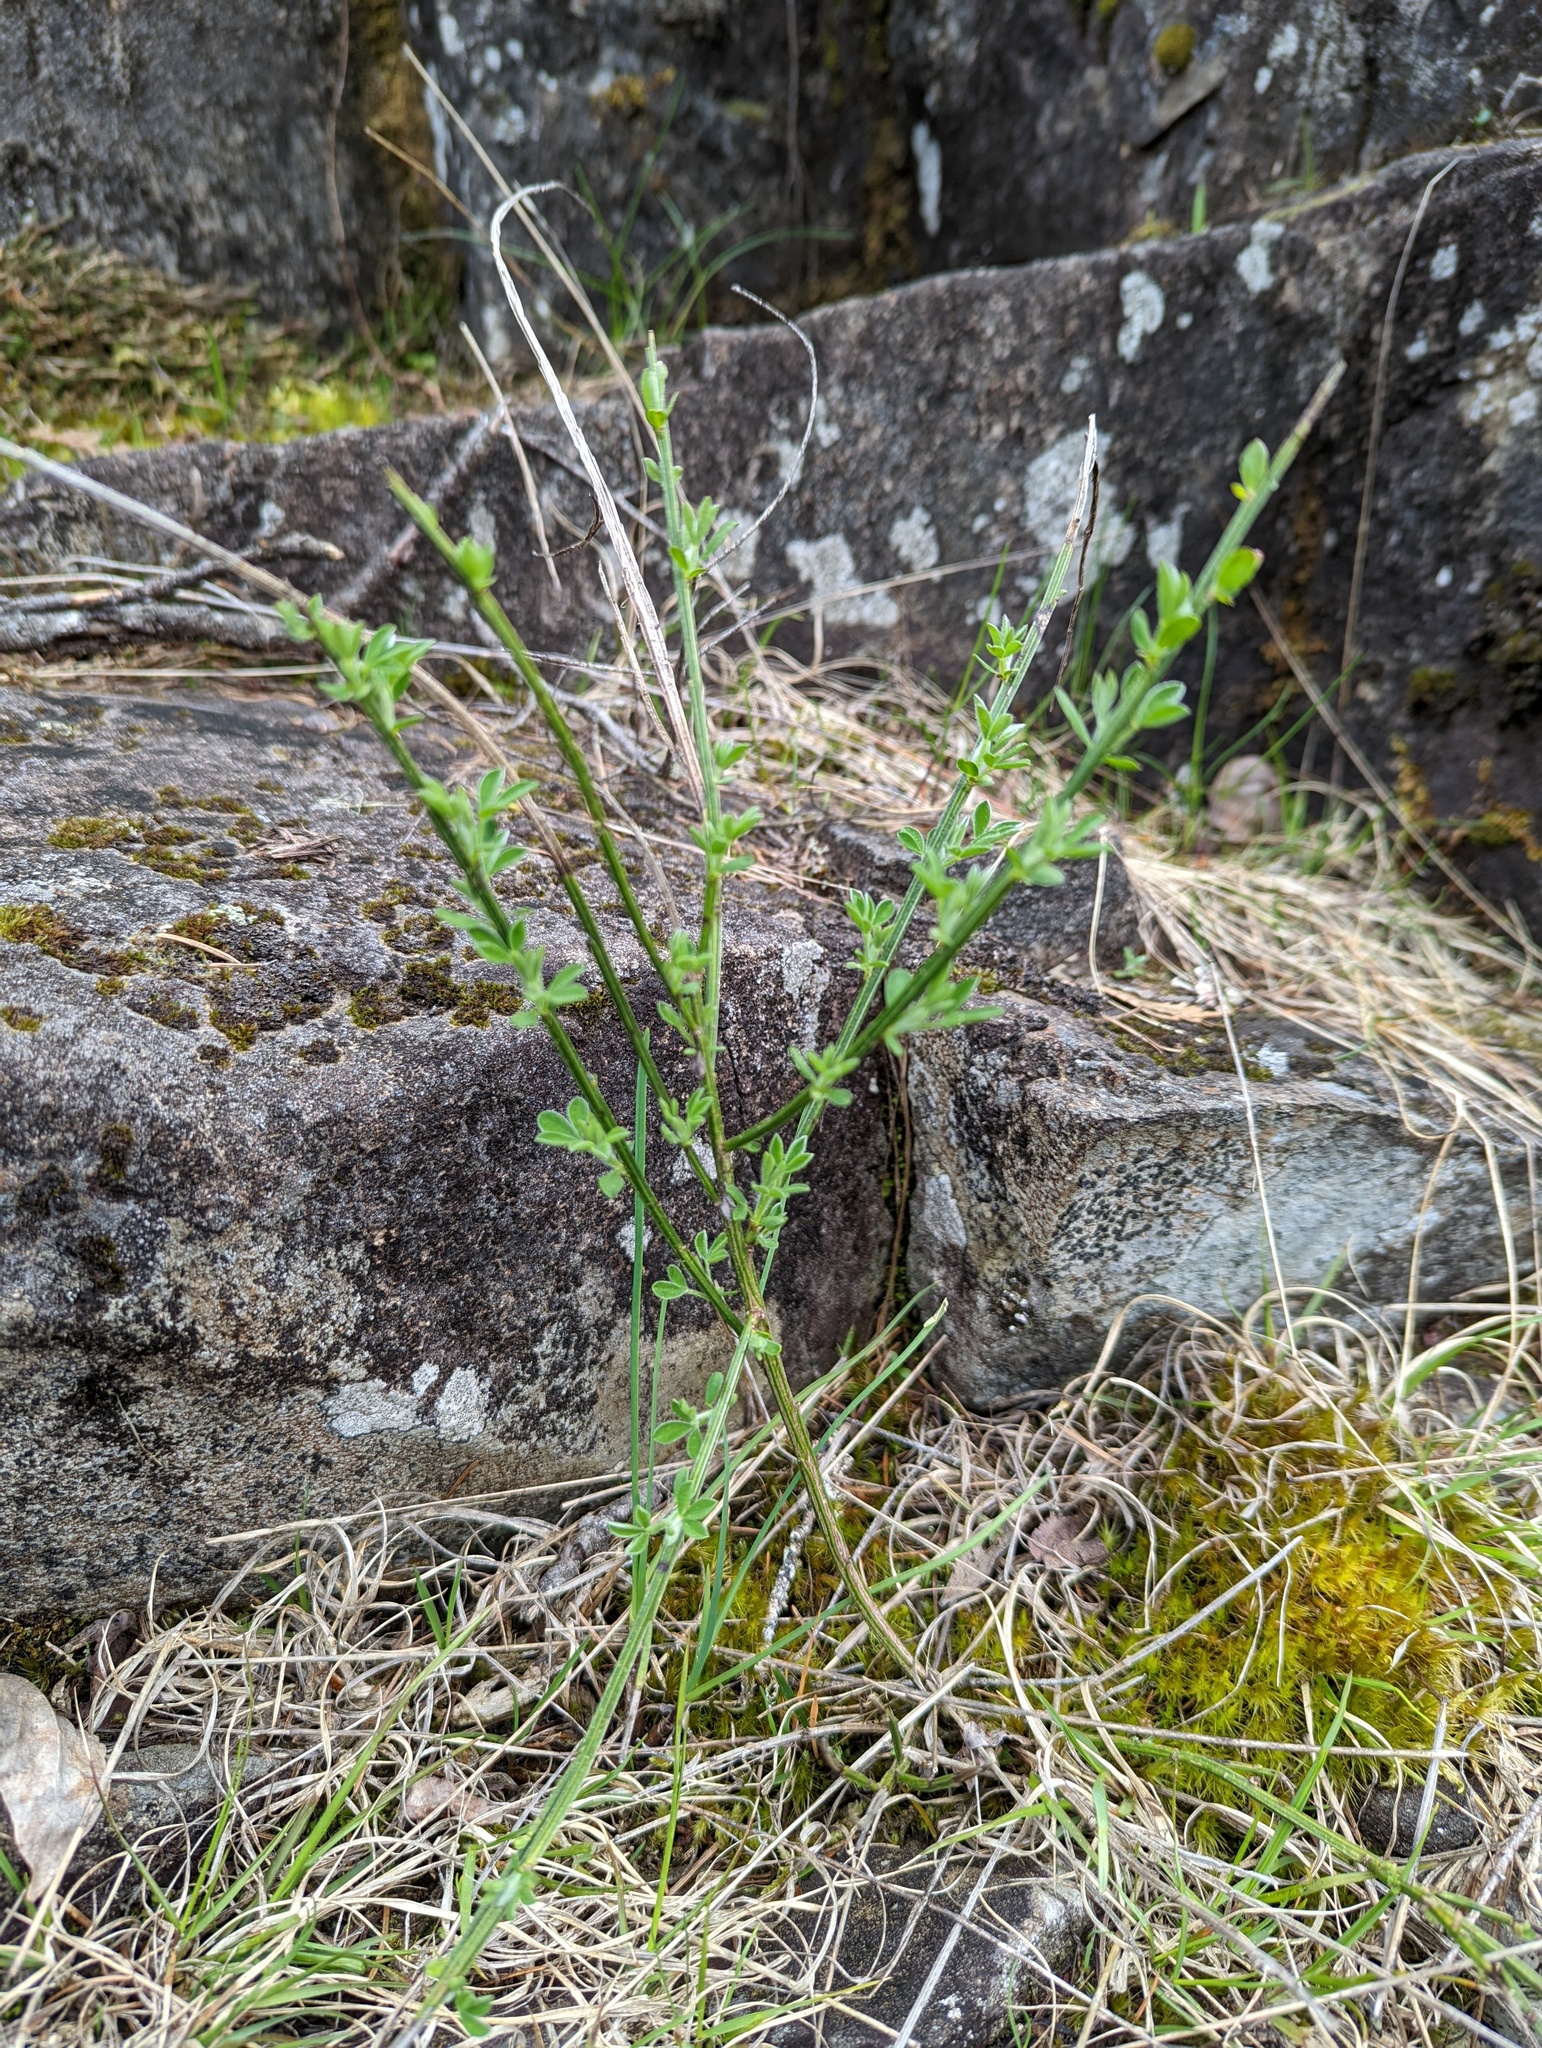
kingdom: Plantae
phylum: Tracheophyta
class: Magnoliopsida
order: Fabales
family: Fabaceae
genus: Cytisus
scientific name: Cytisus scoparius
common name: Scotch broom
